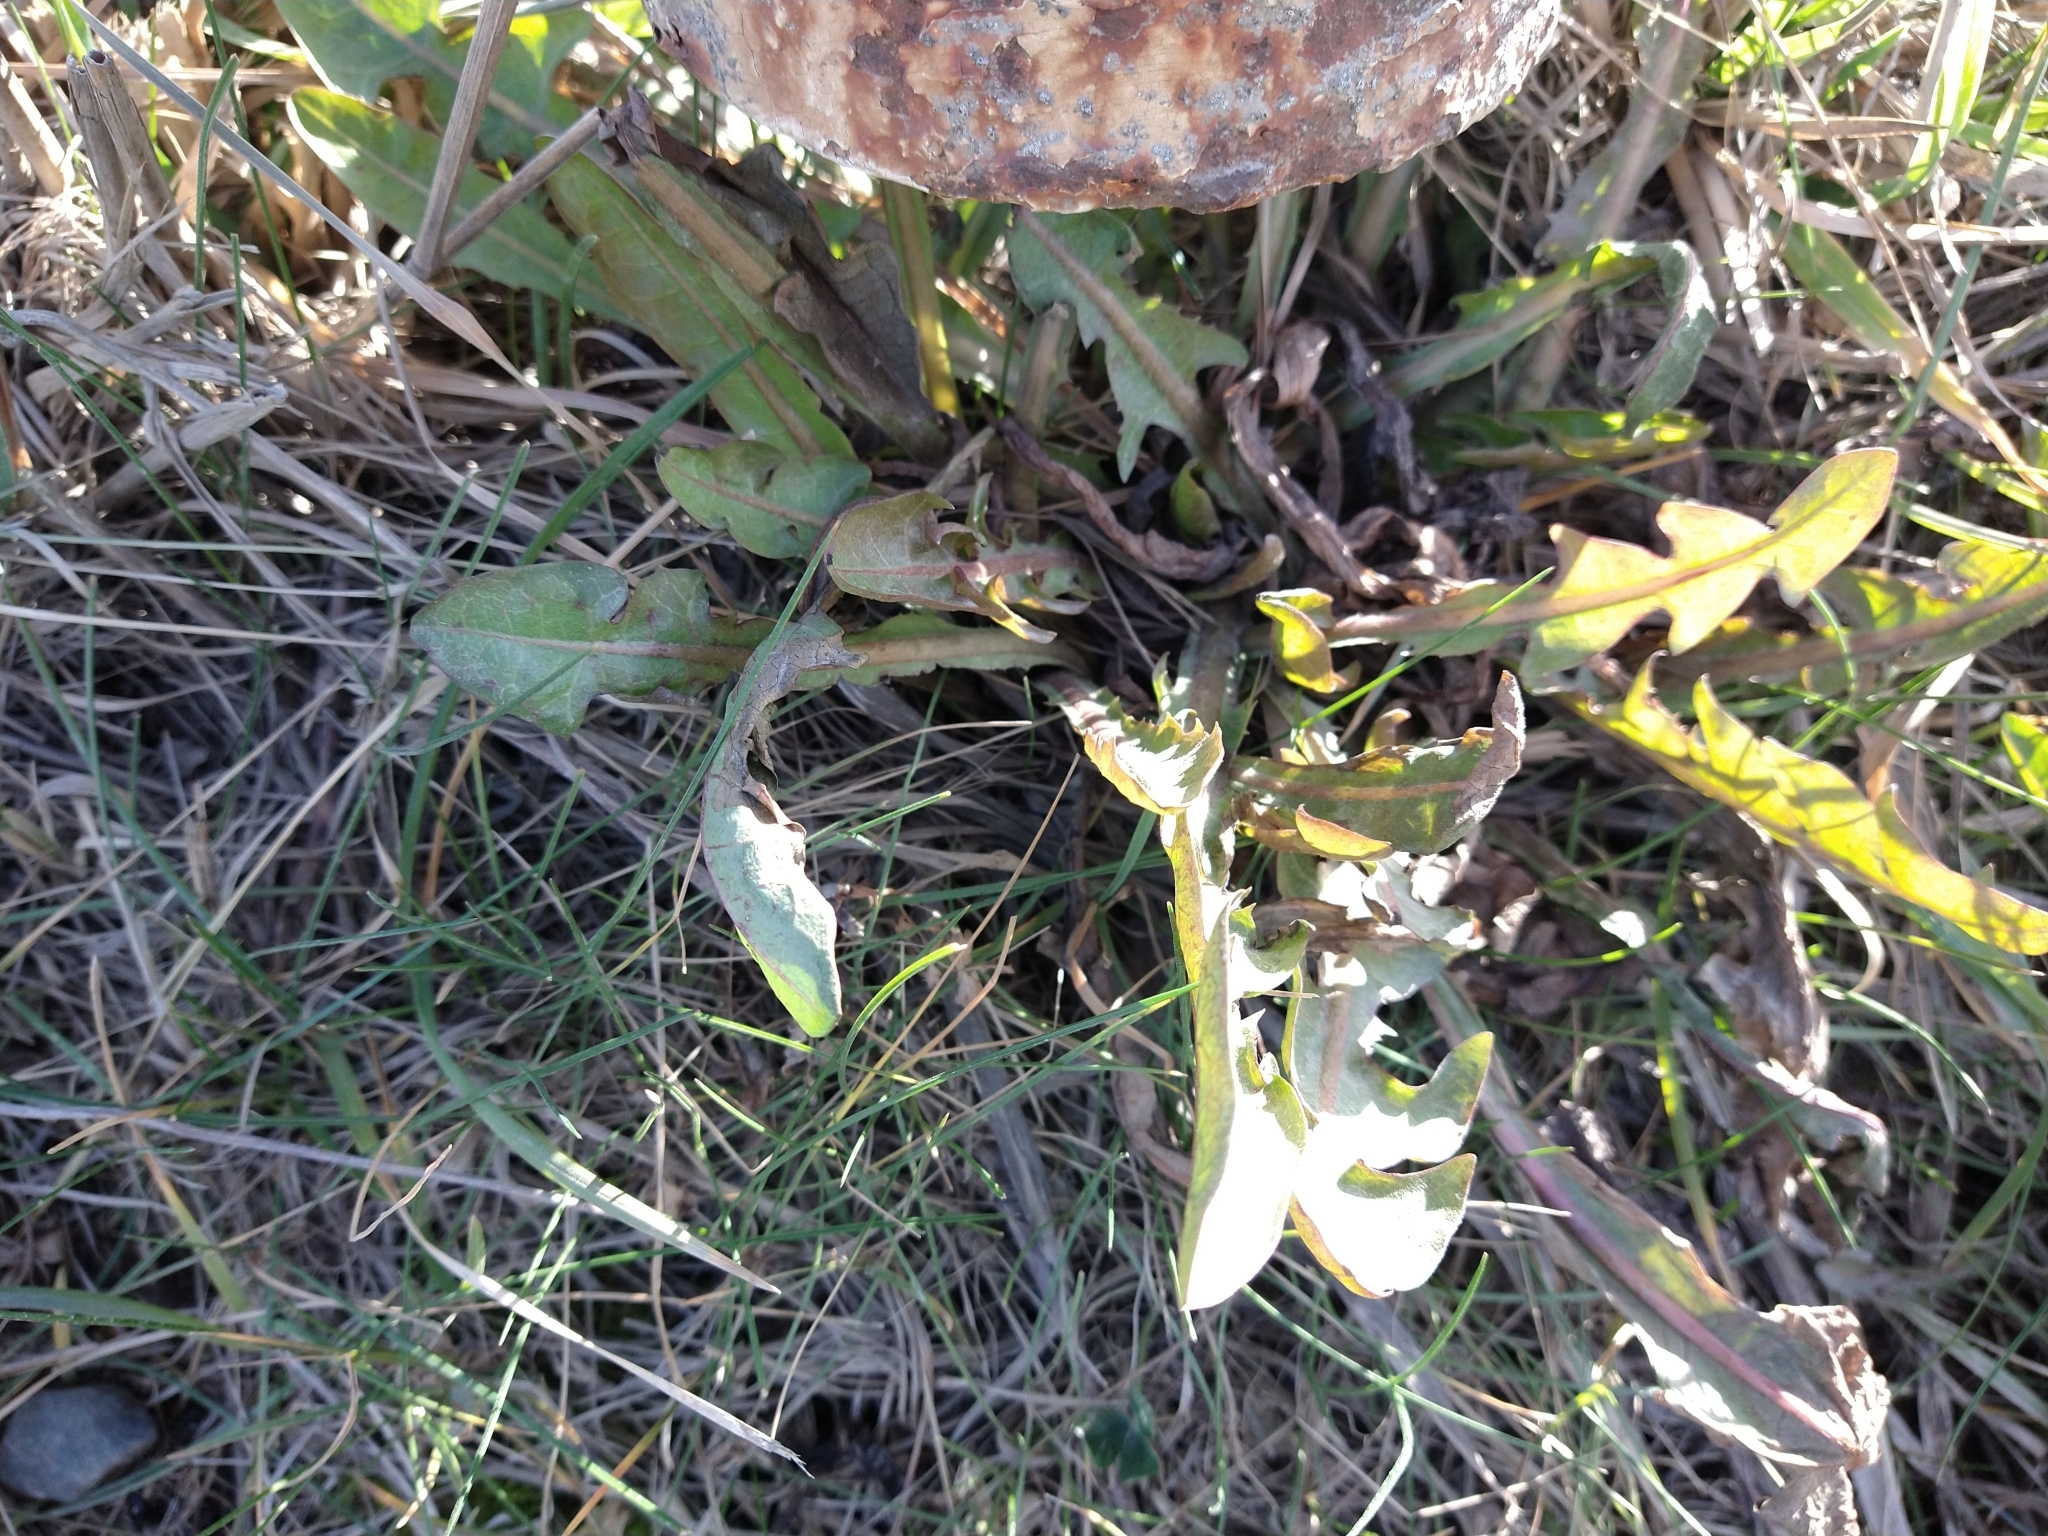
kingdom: Plantae
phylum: Tracheophyta
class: Magnoliopsida
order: Asterales
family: Asteraceae
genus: Taraxacum
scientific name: Taraxacum officinale
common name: Common dandelion
